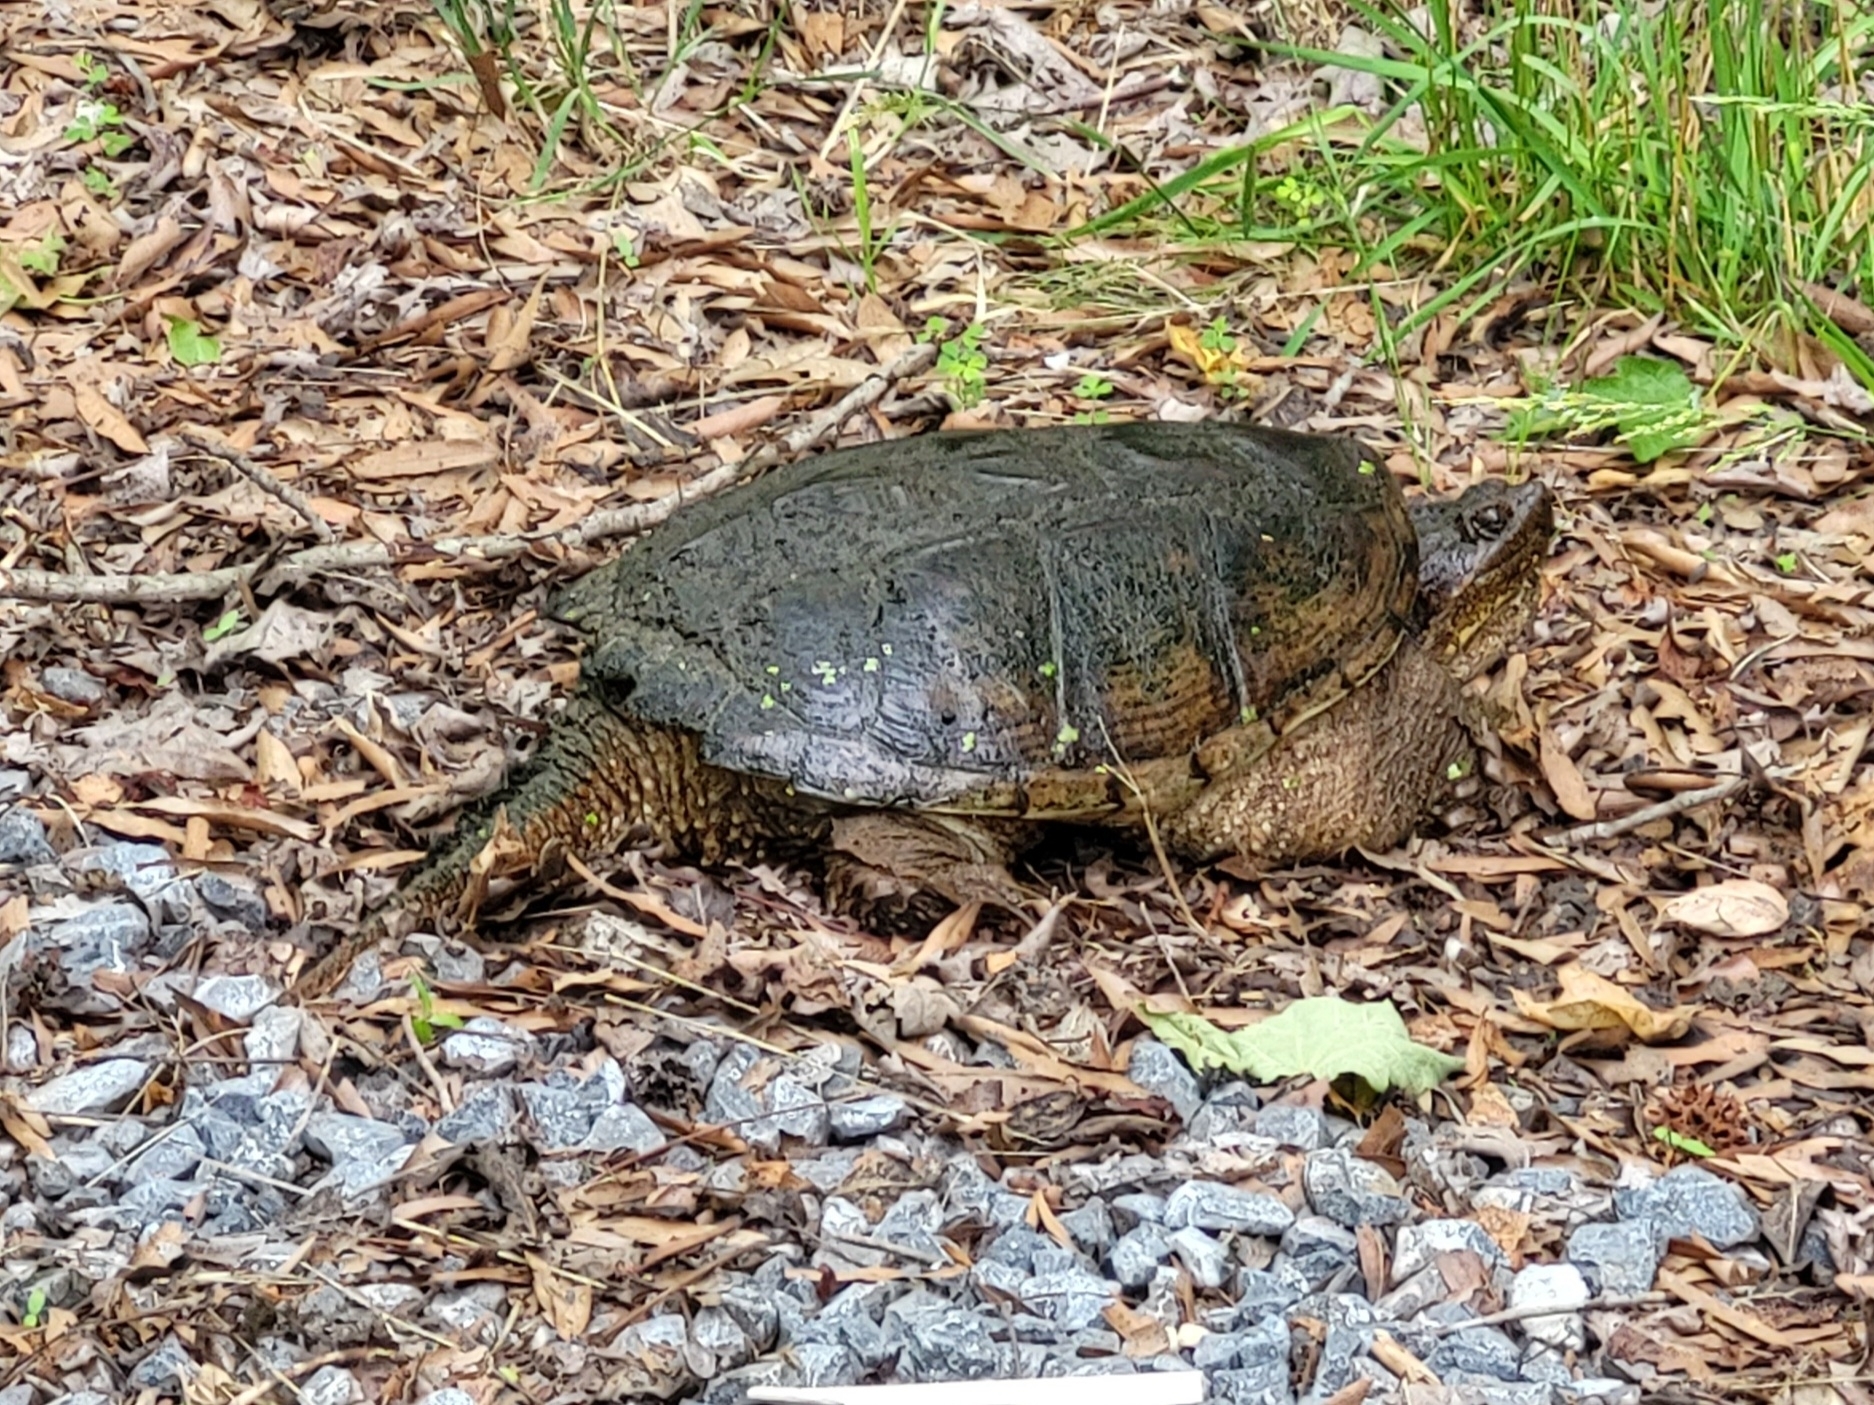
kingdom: Animalia
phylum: Chordata
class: Testudines
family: Chelydridae
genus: Chelydra
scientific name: Chelydra serpentina
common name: Common snapping turtle
